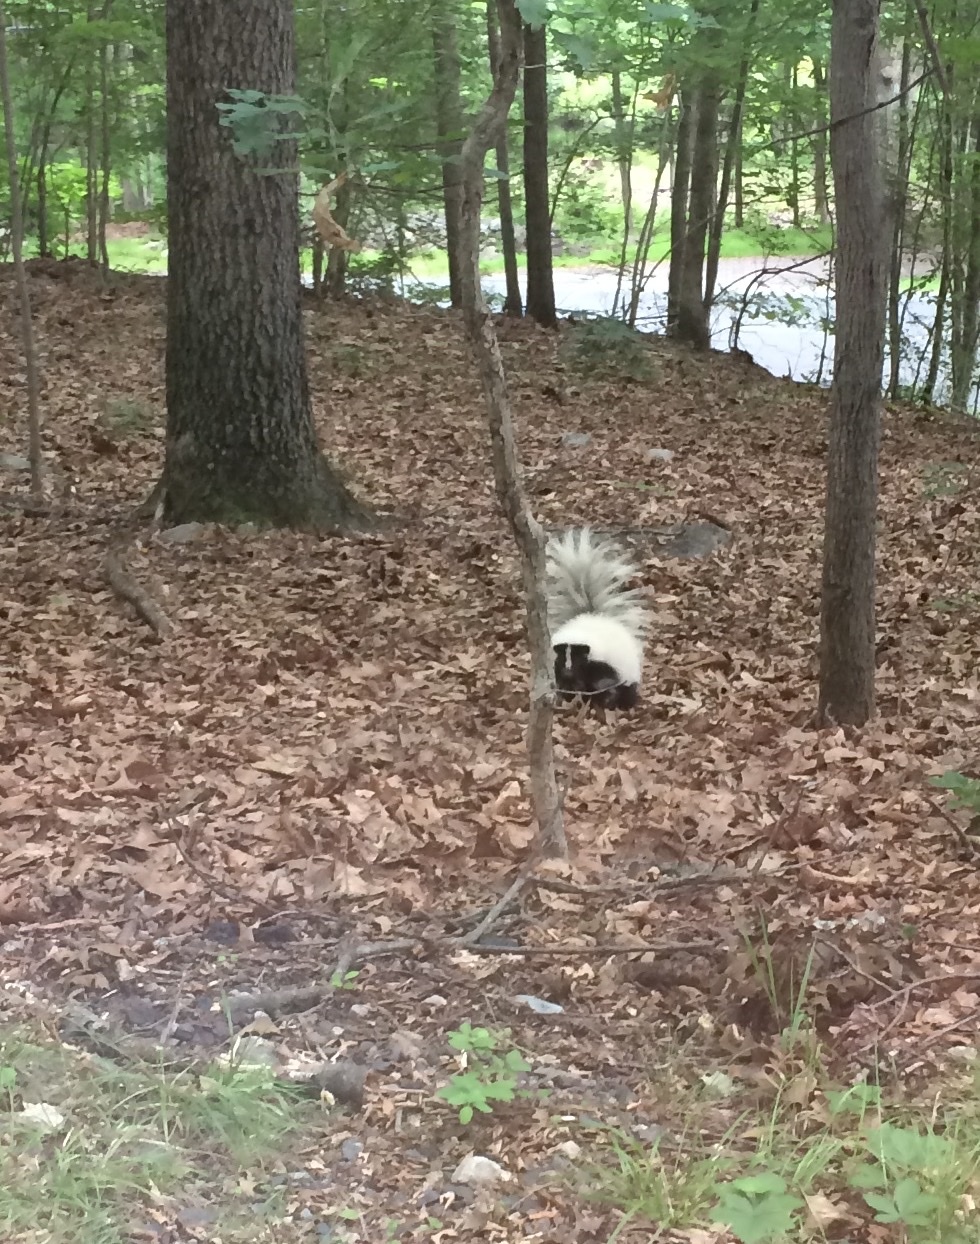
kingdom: Animalia
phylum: Chordata
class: Mammalia
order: Carnivora
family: Mephitidae
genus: Mephitis
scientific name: Mephitis mephitis
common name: Striped skunk
